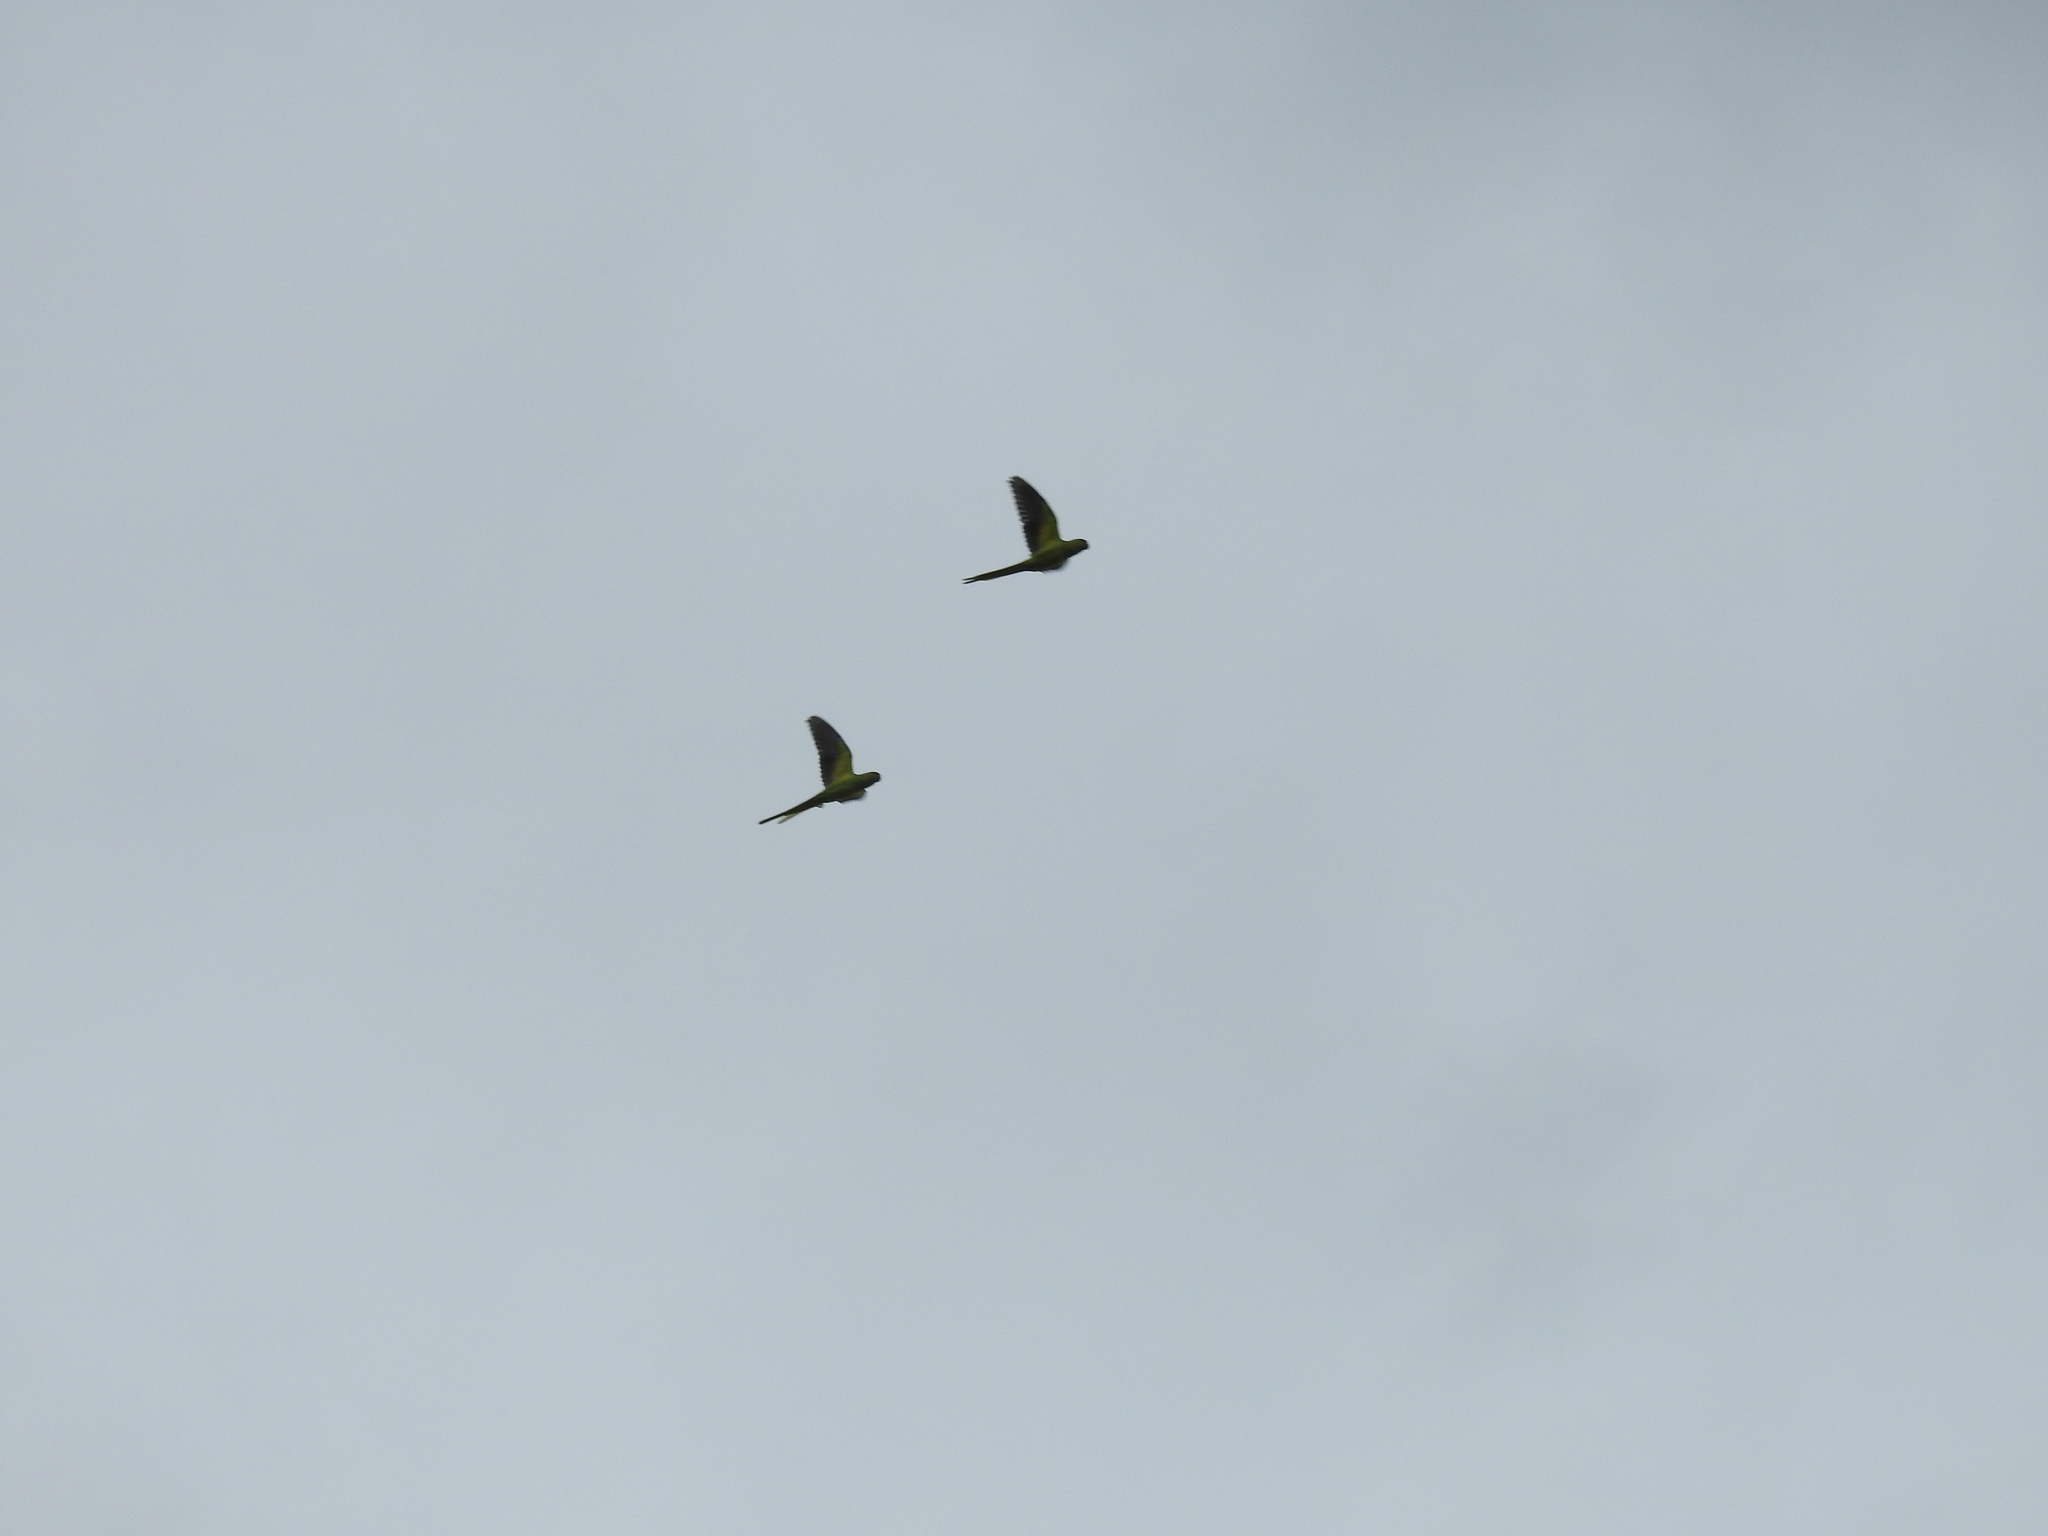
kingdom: Animalia
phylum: Chordata
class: Aves
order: Psittaciformes
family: Psittacidae
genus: Psittacula
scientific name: Psittacula krameri
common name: Rose-ringed parakeet
